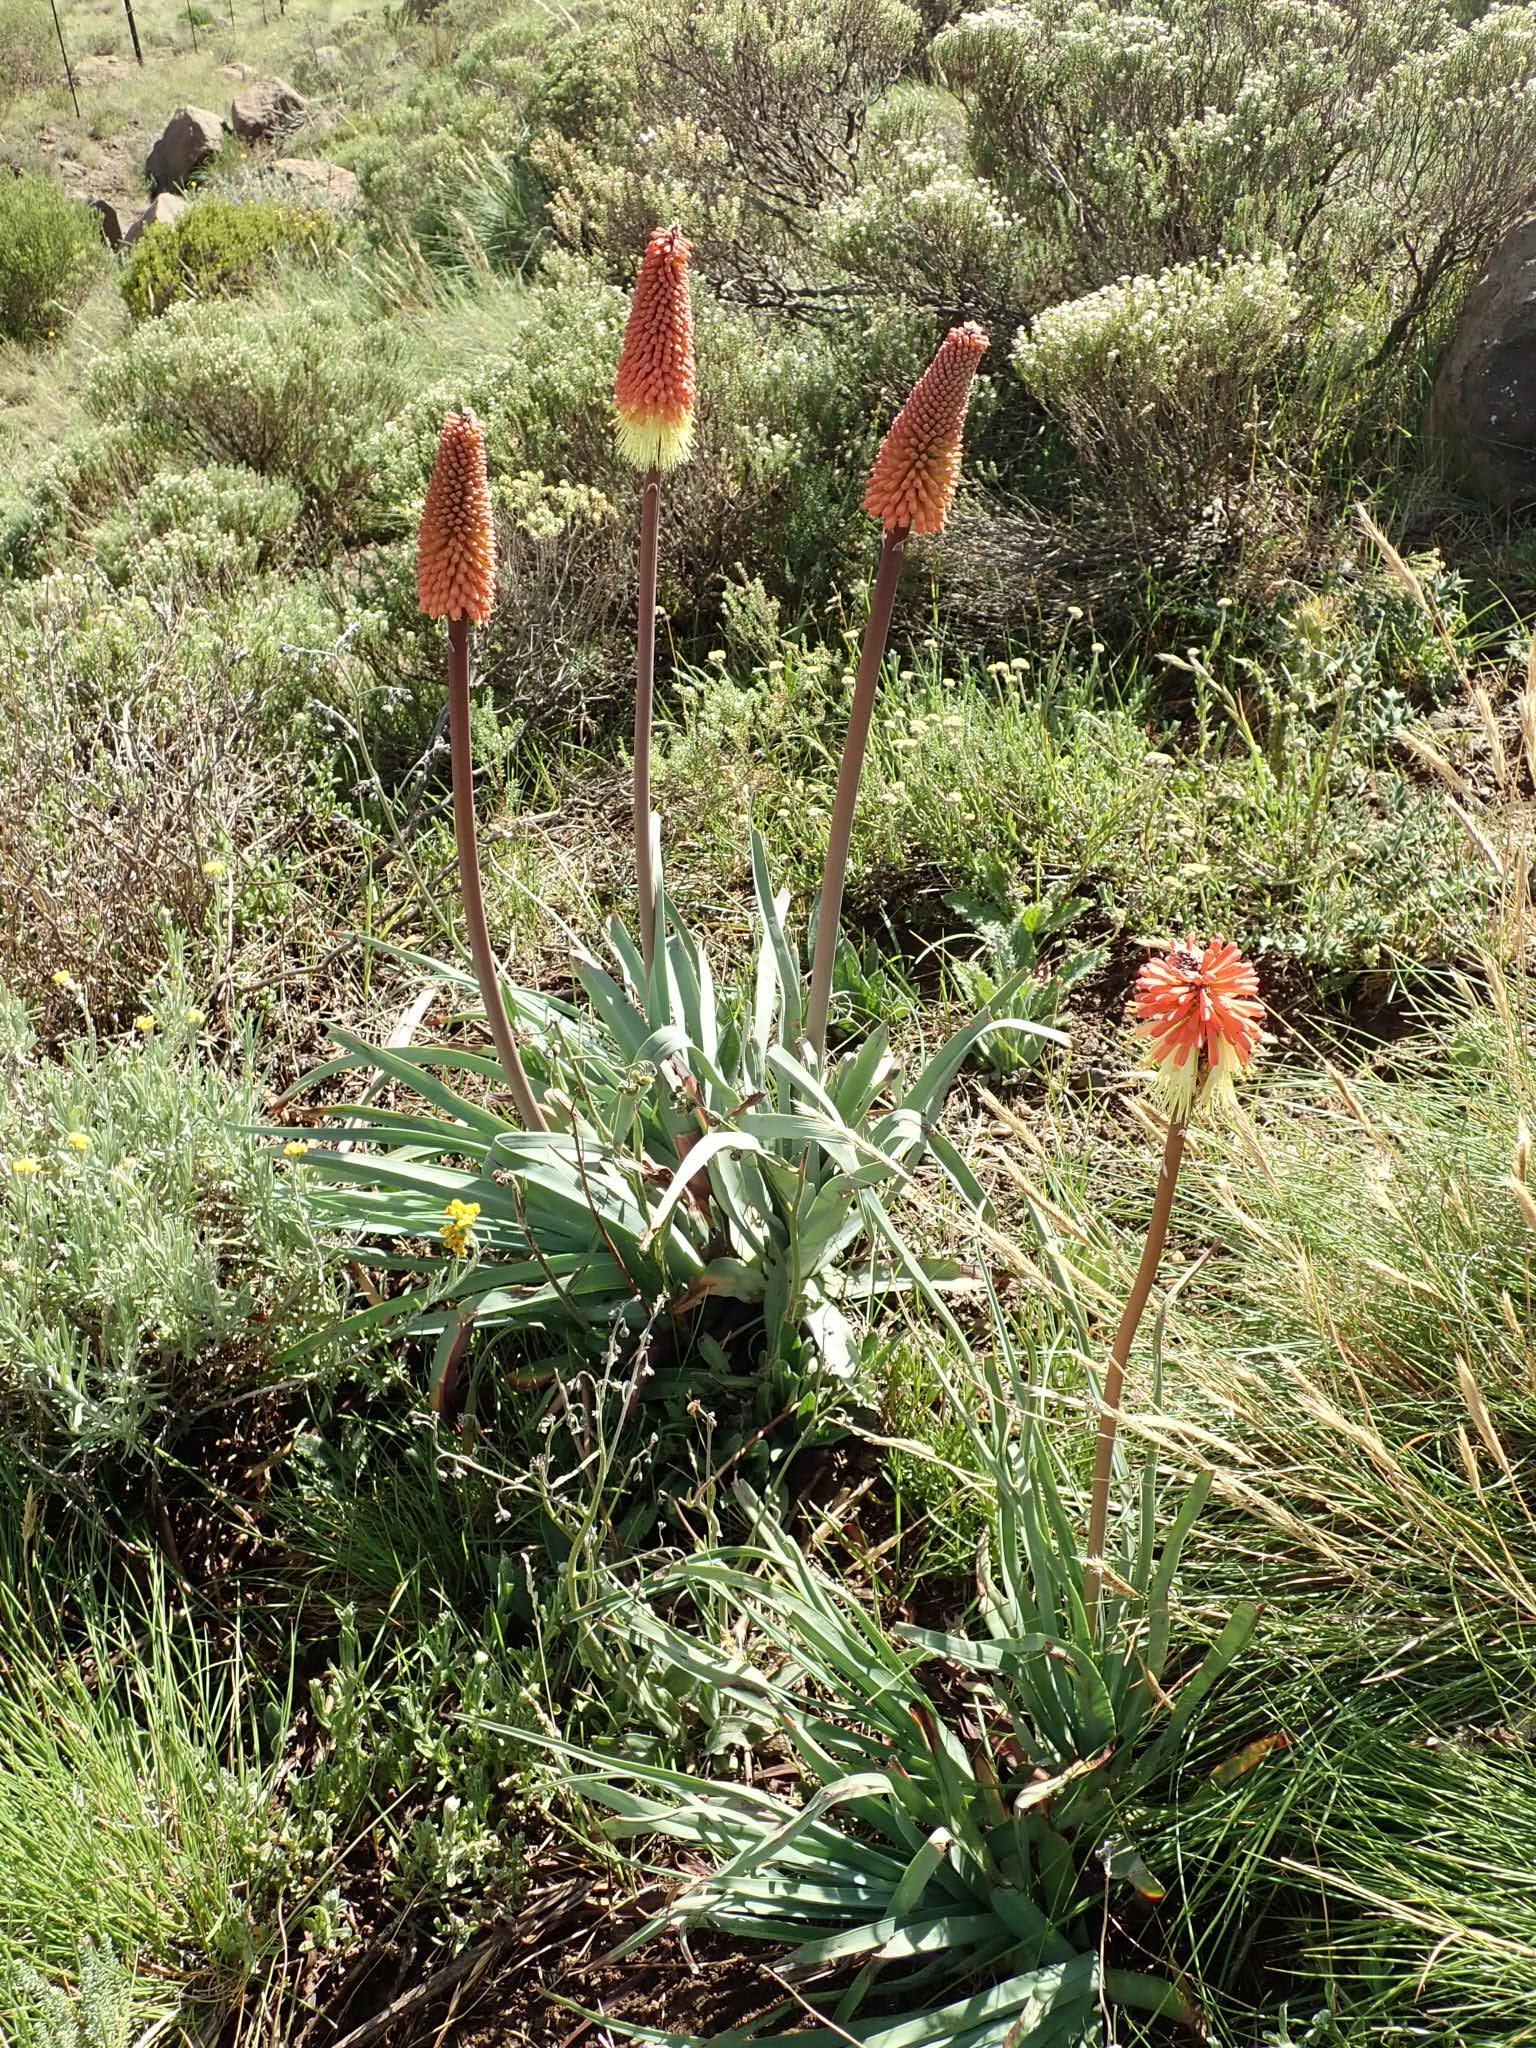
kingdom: Plantae
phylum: Tracheophyta
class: Liliopsida
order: Asparagales
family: Asphodelaceae
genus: Kniphofia
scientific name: Kniphofia caulescens
